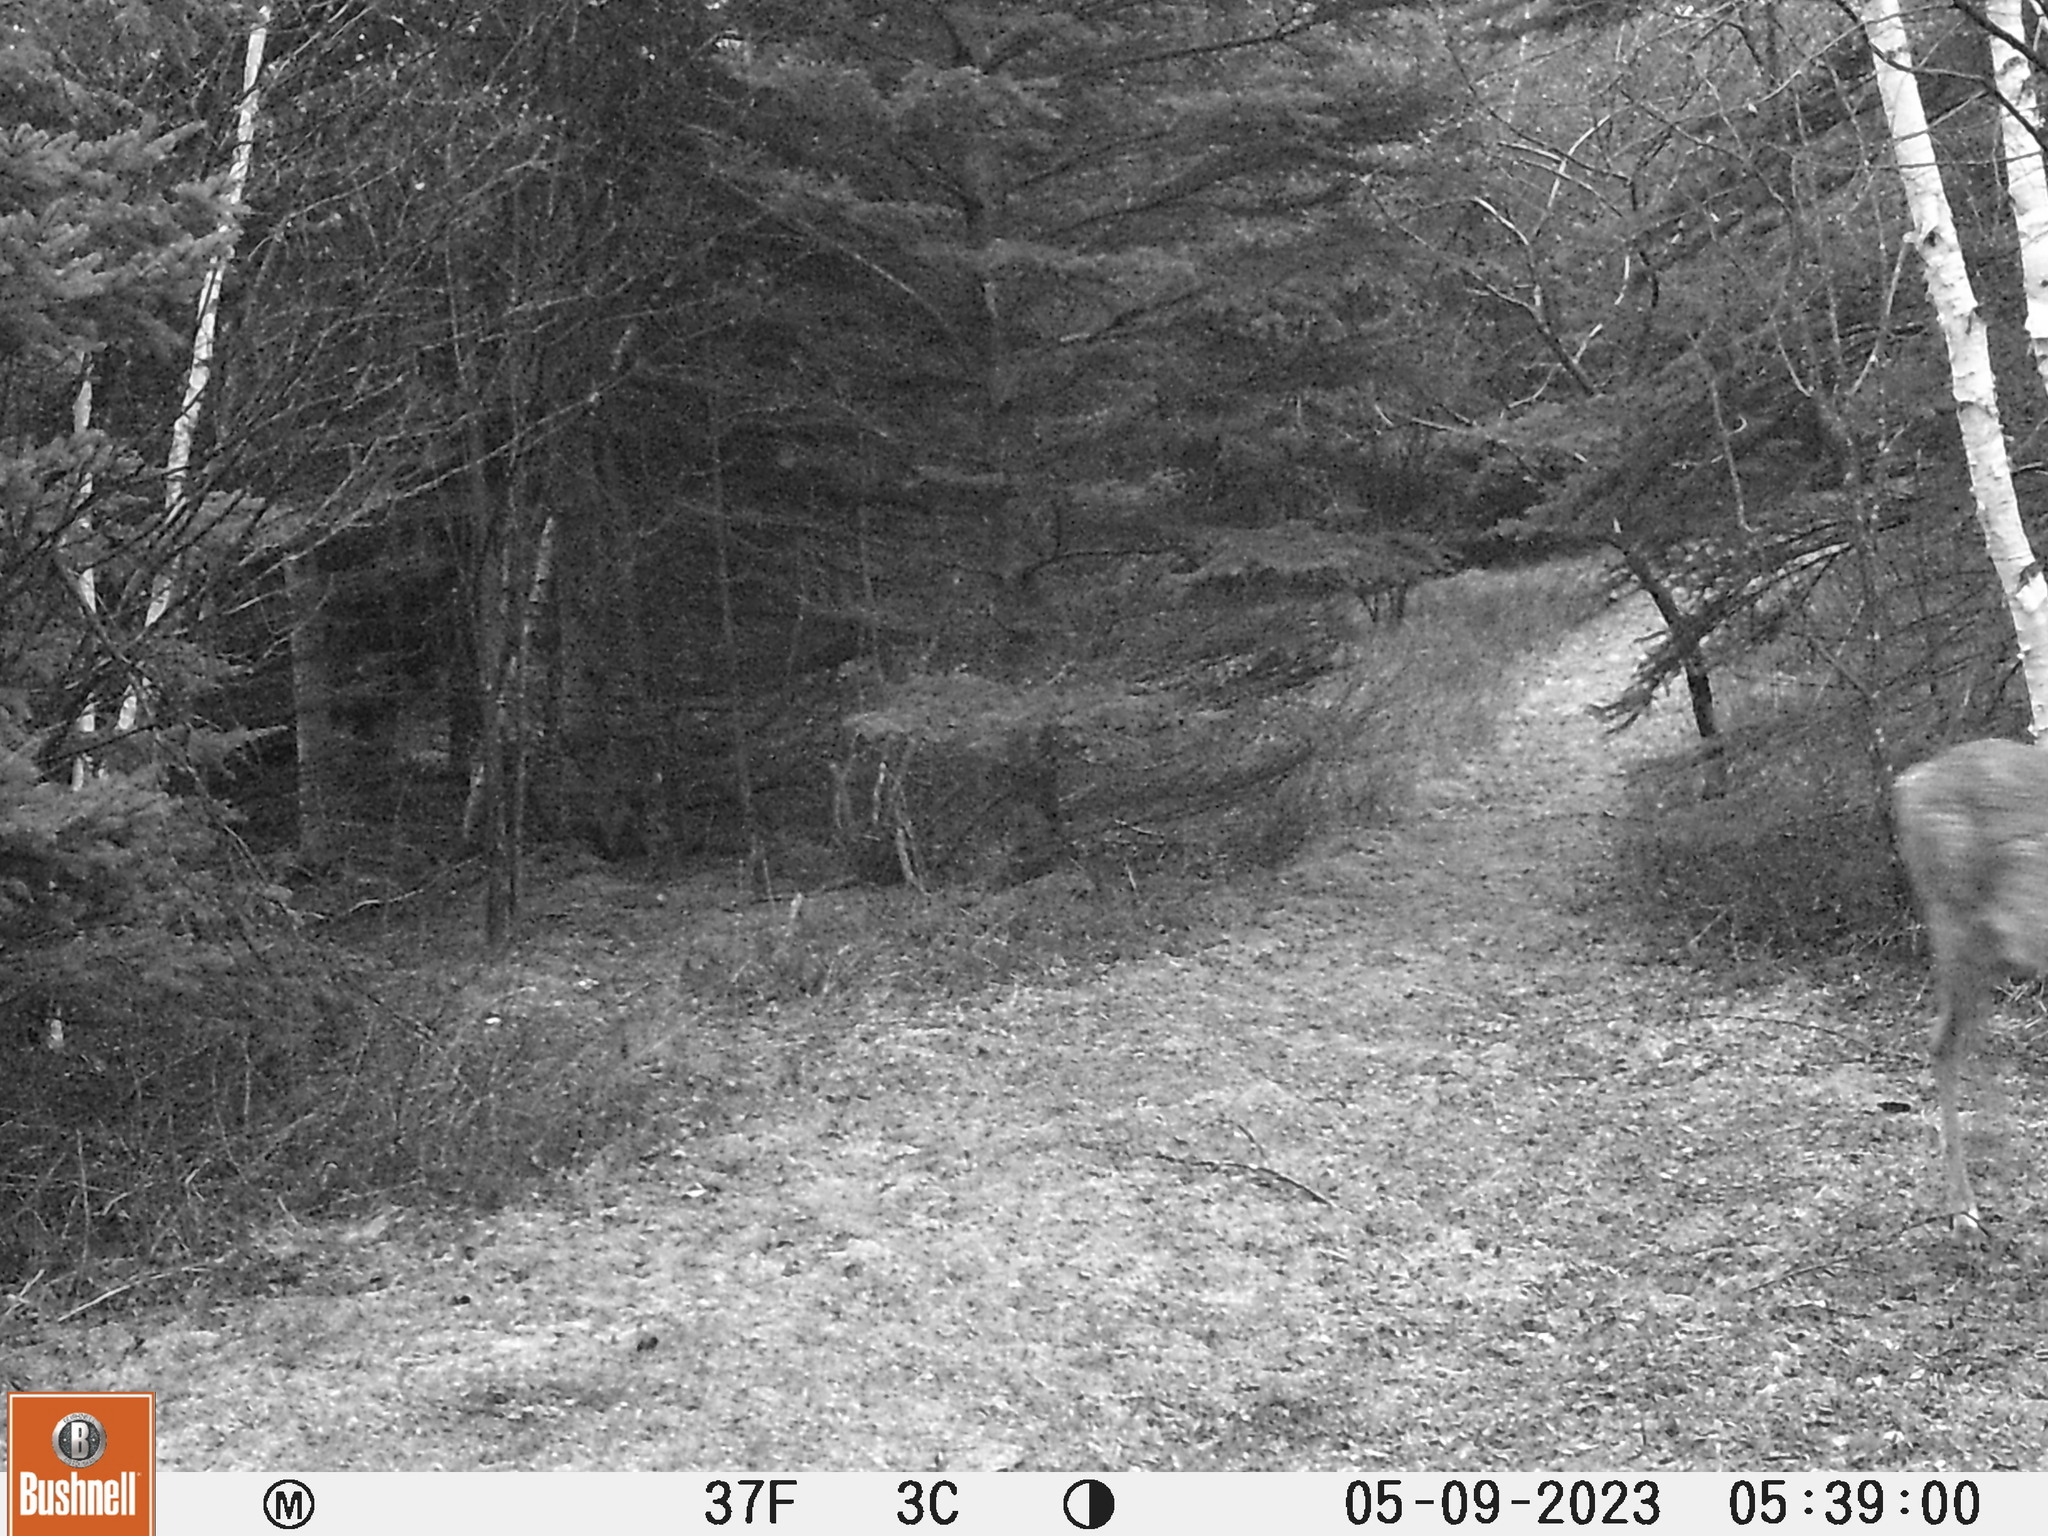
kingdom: Animalia
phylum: Chordata
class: Mammalia
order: Artiodactyla
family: Cervidae
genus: Odocoileus
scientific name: Odocoileus virginianus
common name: White-tailed deer
